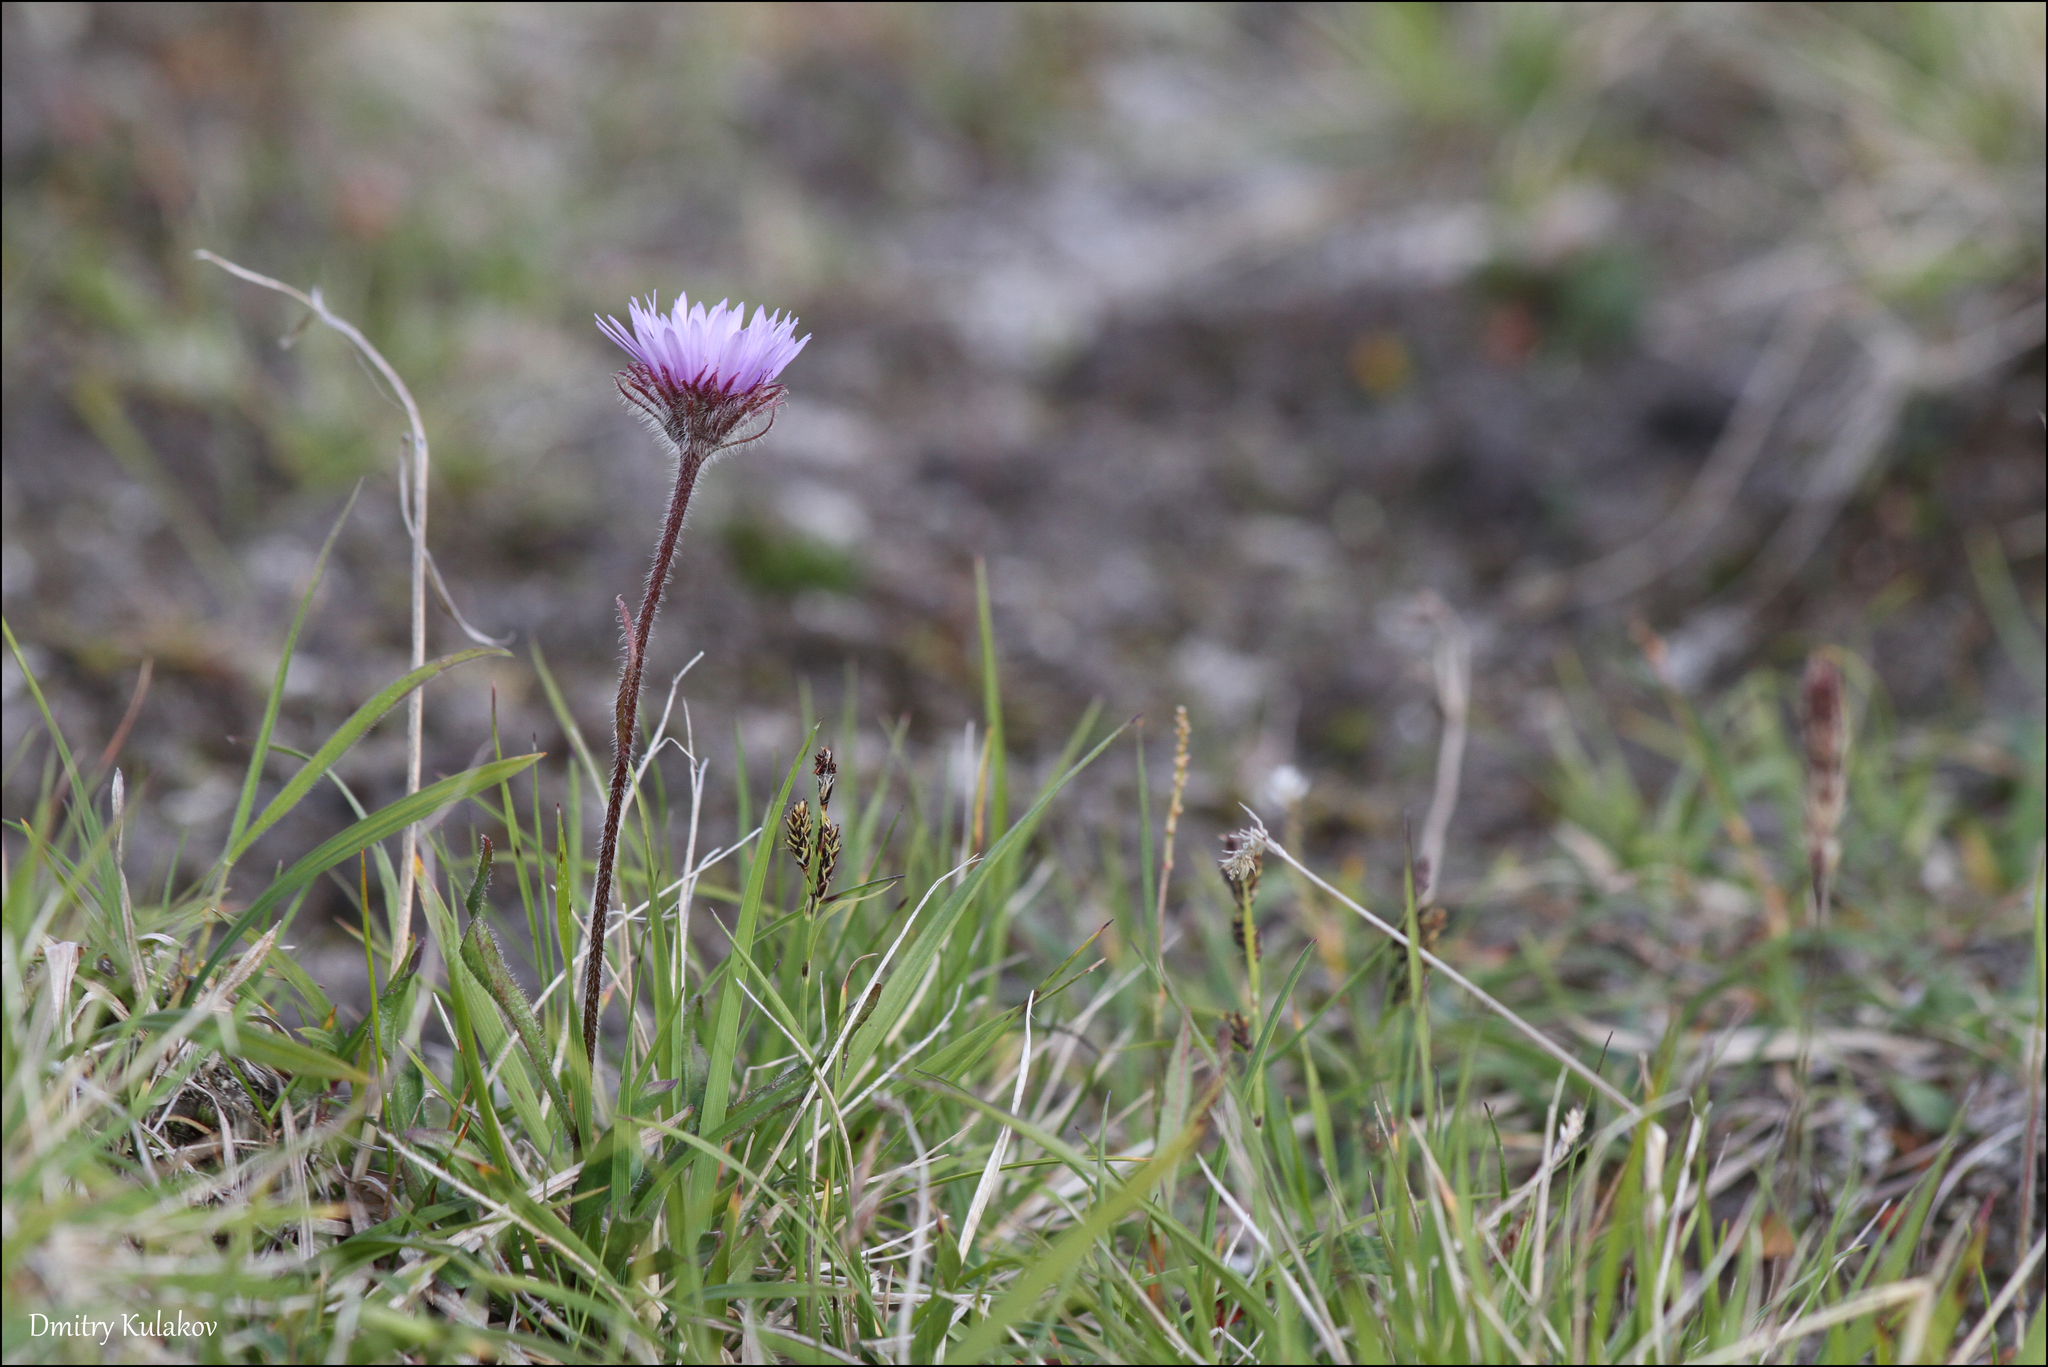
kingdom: Plantae
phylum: Tracheophyta
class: Magnoliopsida
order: Asterales
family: Asteraceae
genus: Erigeron
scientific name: Erigeron thunbergii
